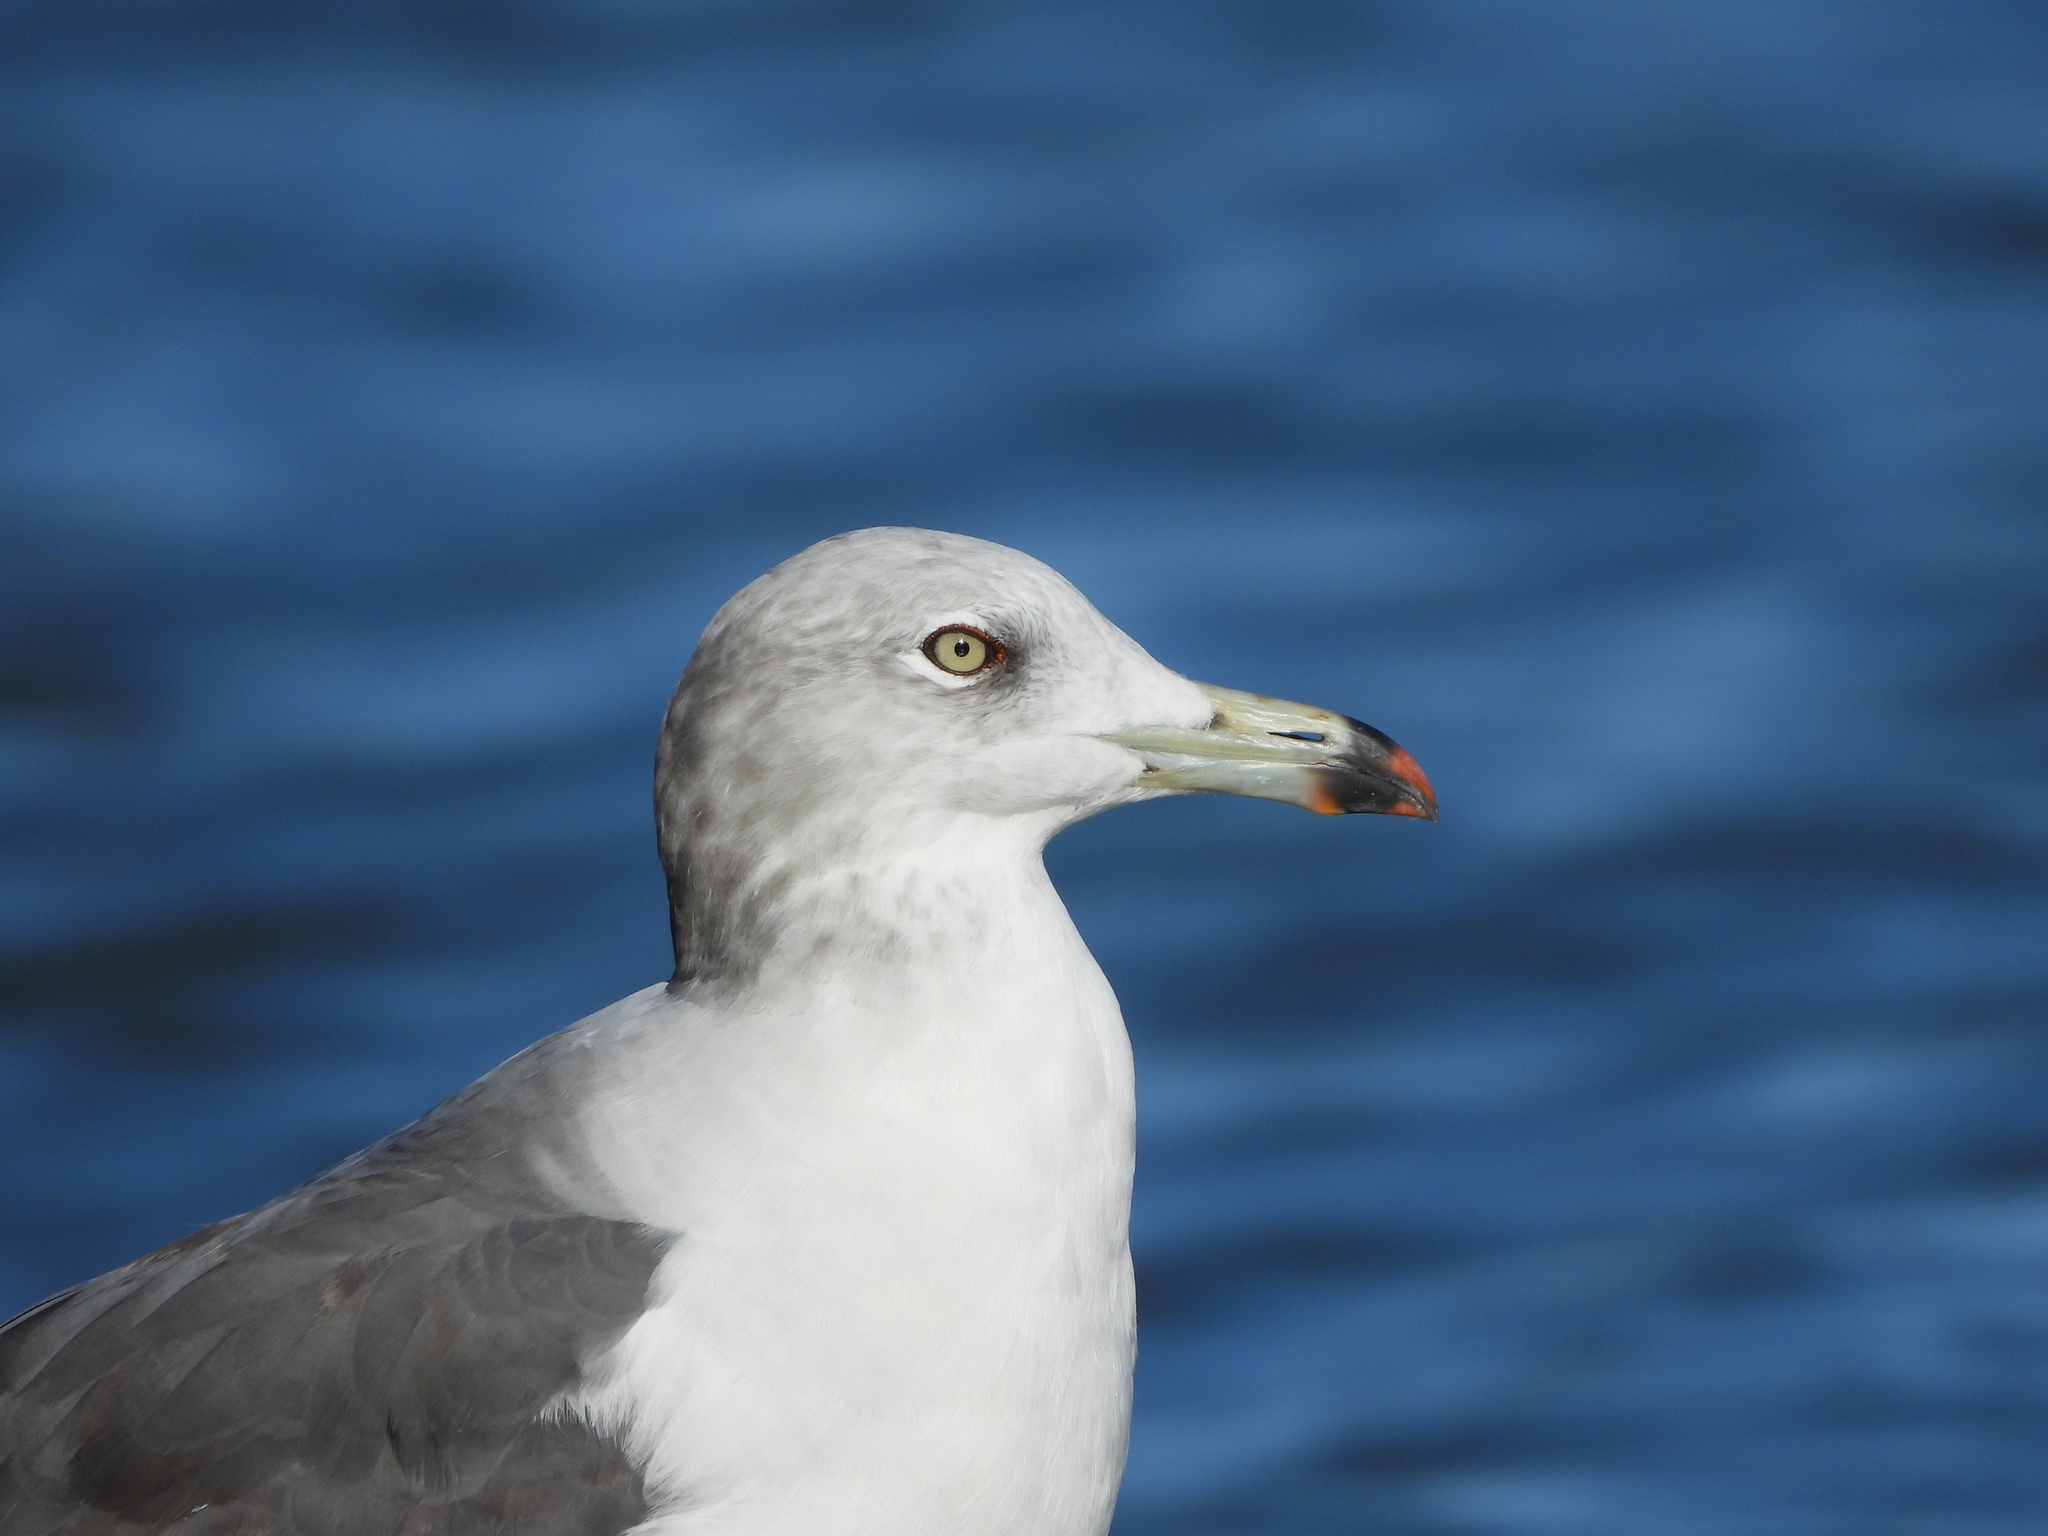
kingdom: Animalia
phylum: Chordata
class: Aves
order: Charadriiformes
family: Laridae
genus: Larus
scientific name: Larus crassirostris
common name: Black-tailed gull
